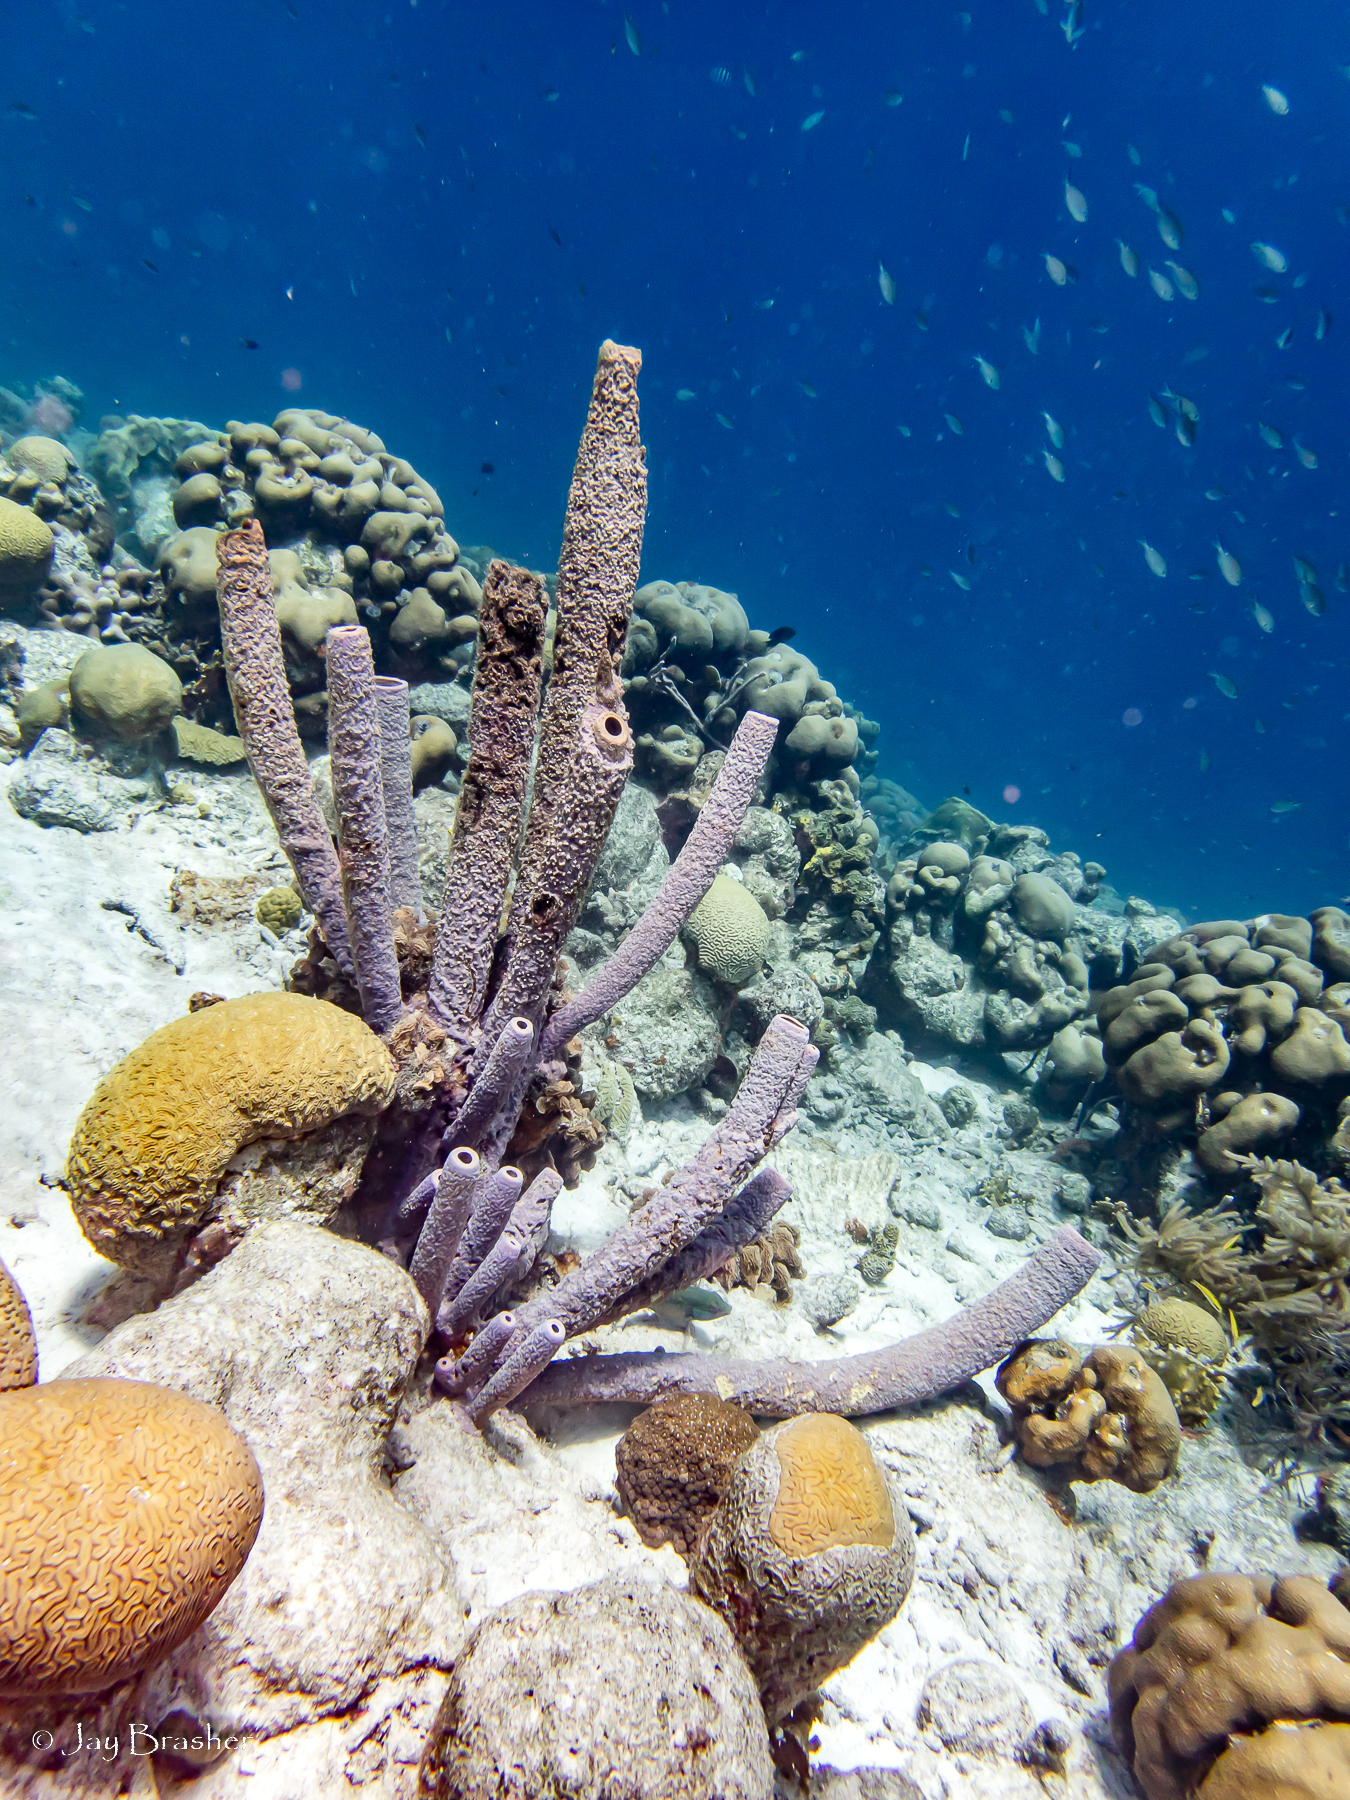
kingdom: Animalia
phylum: Porifera
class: Demospongiae
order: Verongiida
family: Aplysinidae
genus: Aplysina
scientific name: Aplysina archeri
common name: Stove-pipe sponge
